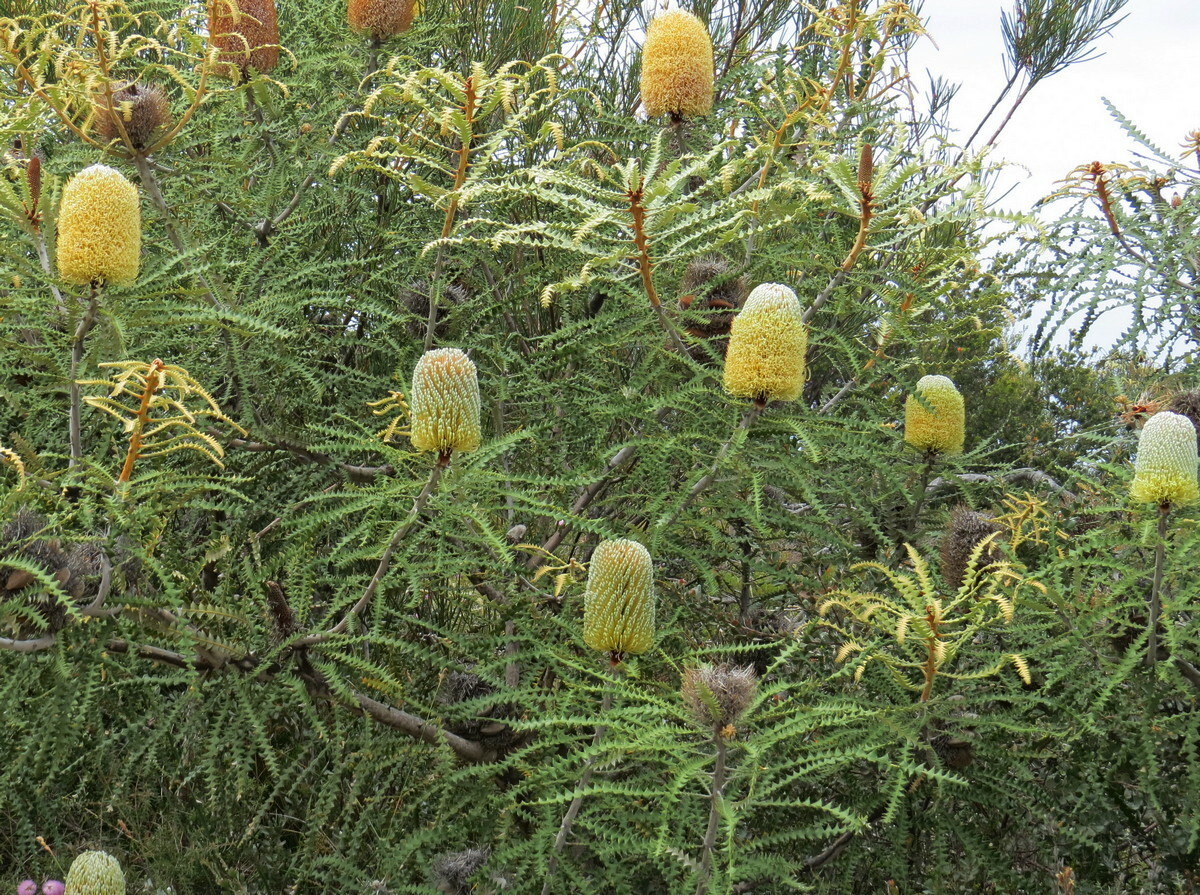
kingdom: Plantae
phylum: Tracheophyta
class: Magnoliopsida
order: Proteales
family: Proteaceae
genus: Banksia
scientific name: Banksia speciosa
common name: Showy banksia
